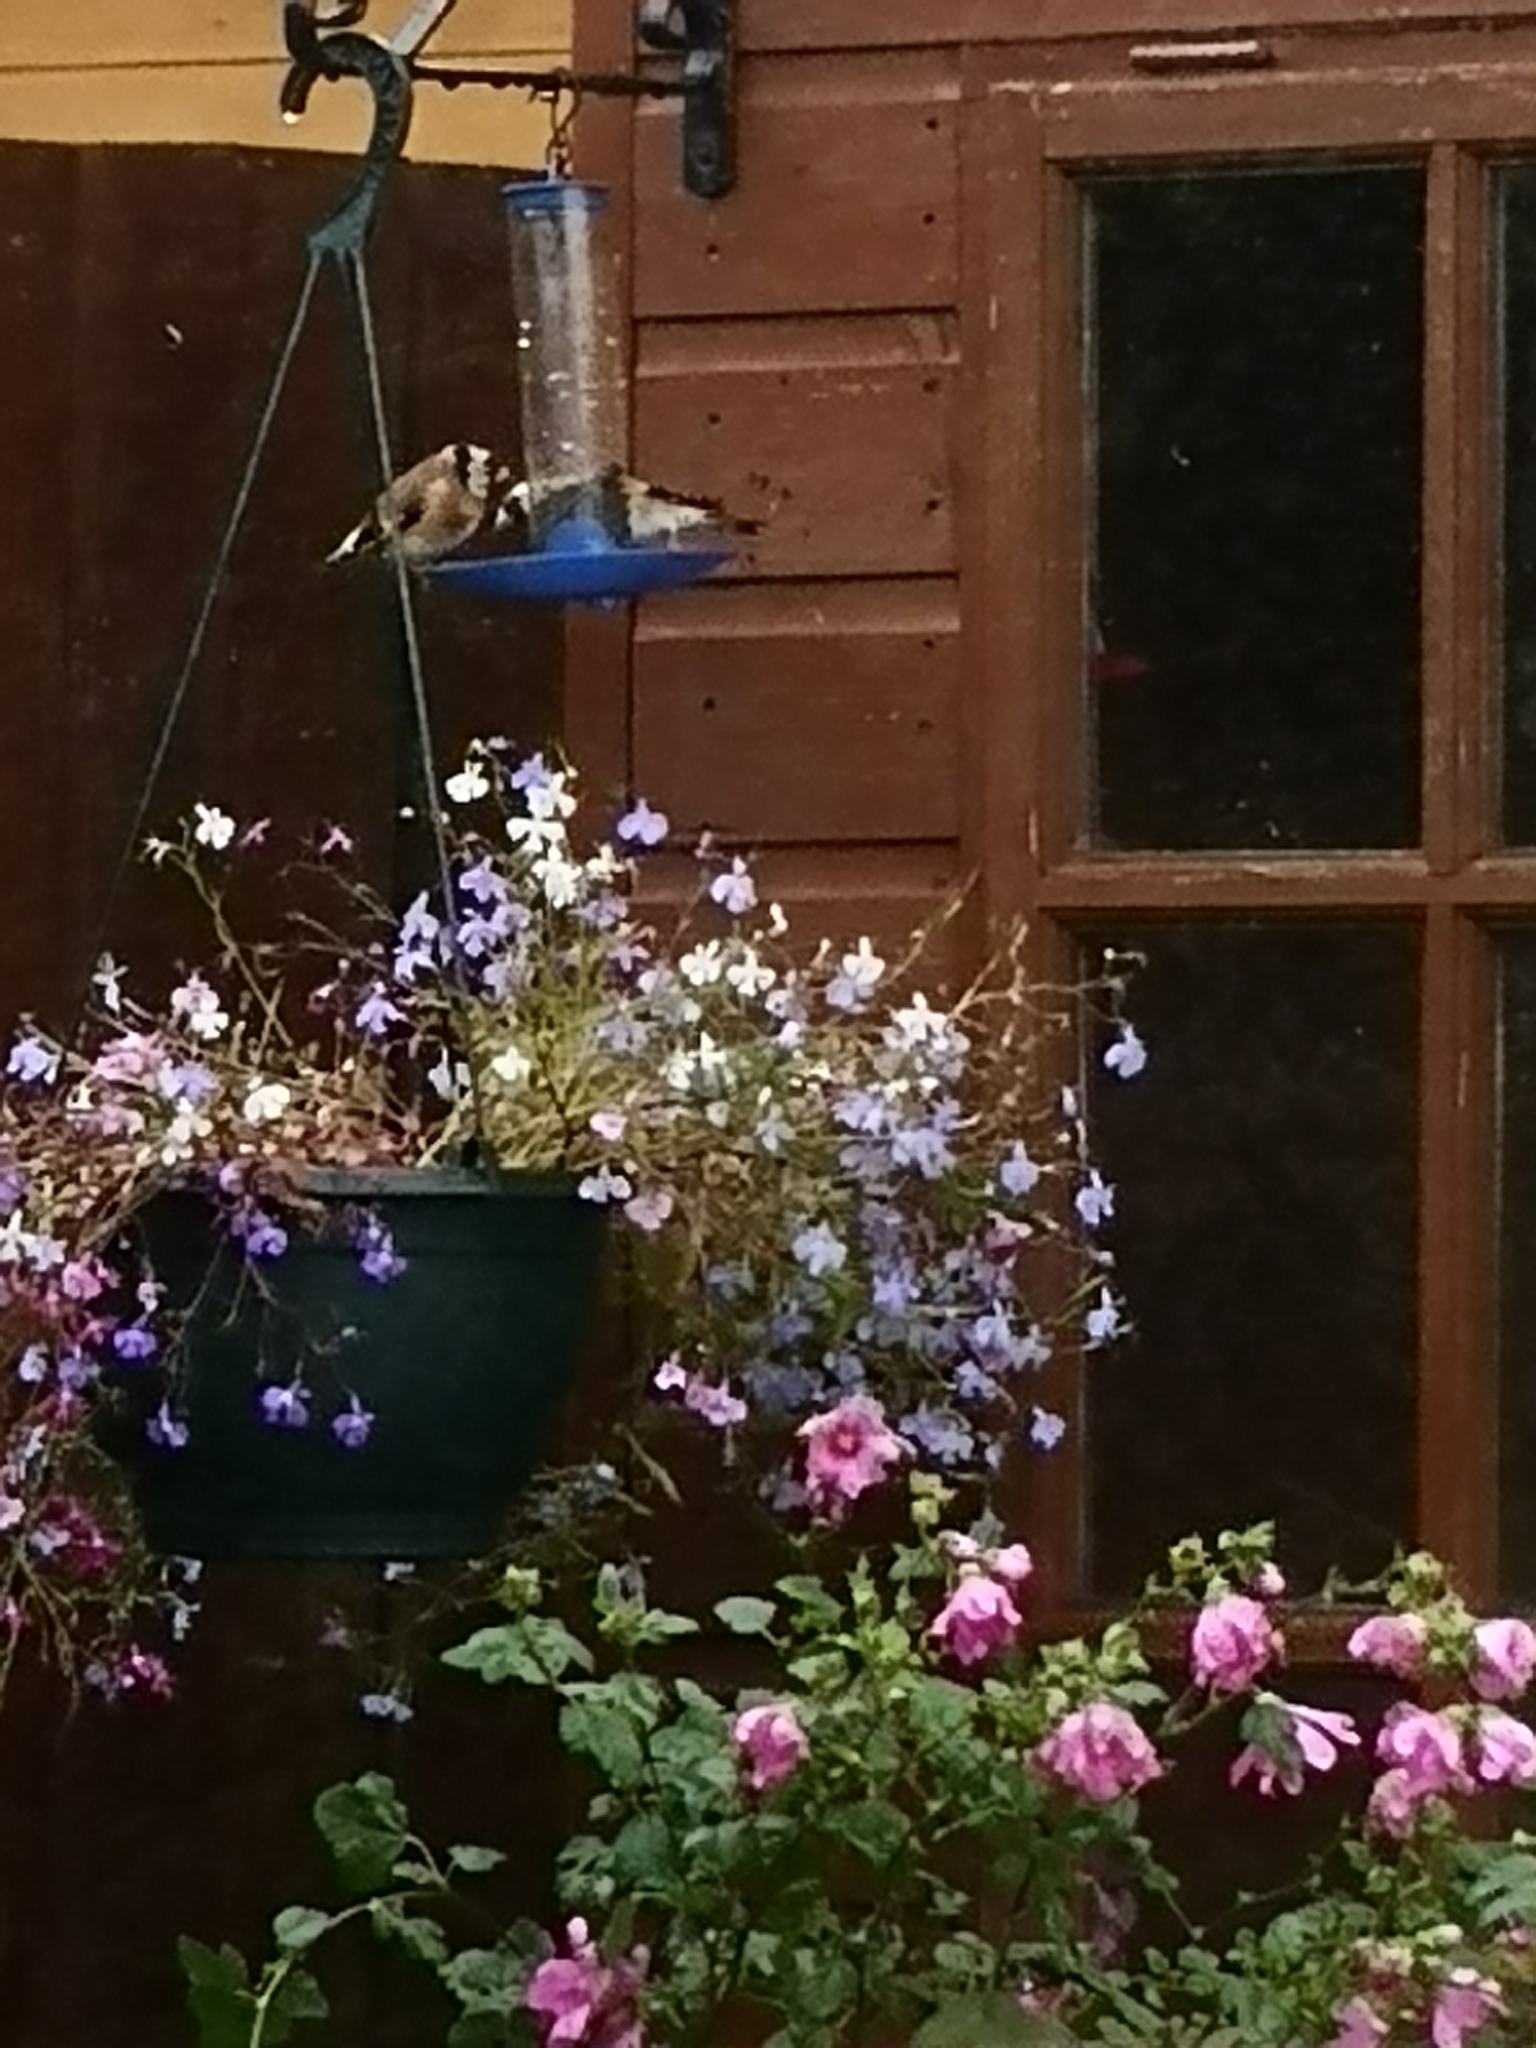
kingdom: Animalia
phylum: Chordata
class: Aves
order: Passeriformes
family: Fringillidae
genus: Carduelis
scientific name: Carduelis carduelis
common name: European goldfinch
